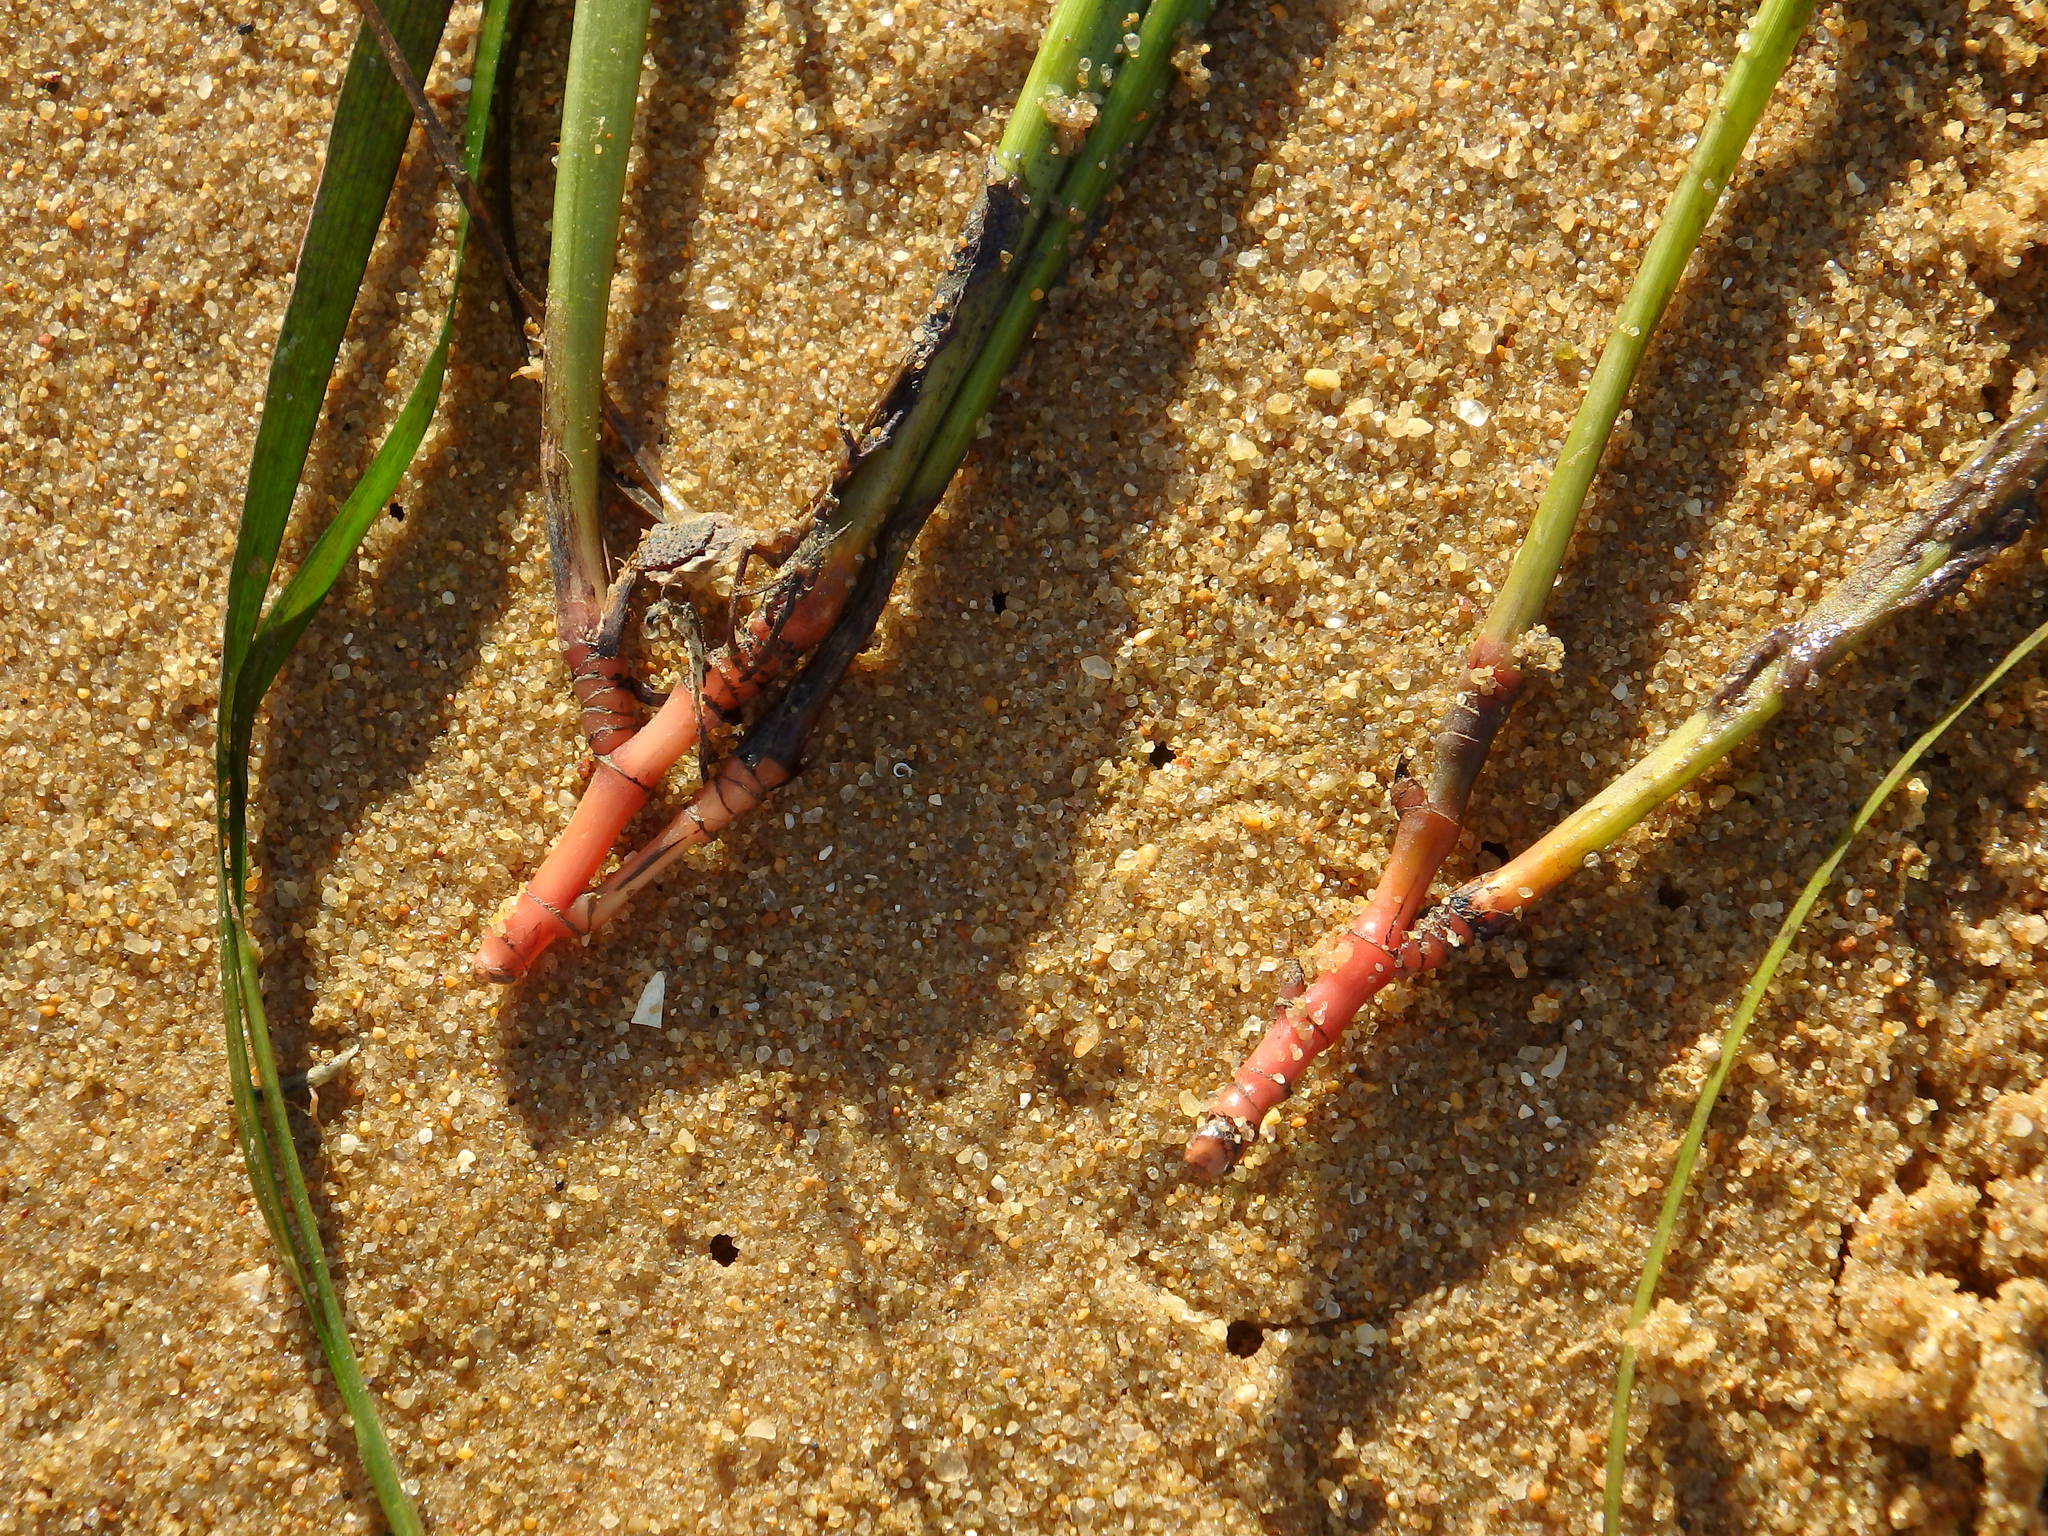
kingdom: Plantae
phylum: Tracheophyta
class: Liliopsida
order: Alismatales
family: Cymodoceaceae
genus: Cymodocea
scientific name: Cymodocea nodosa
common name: Slender seagrass
